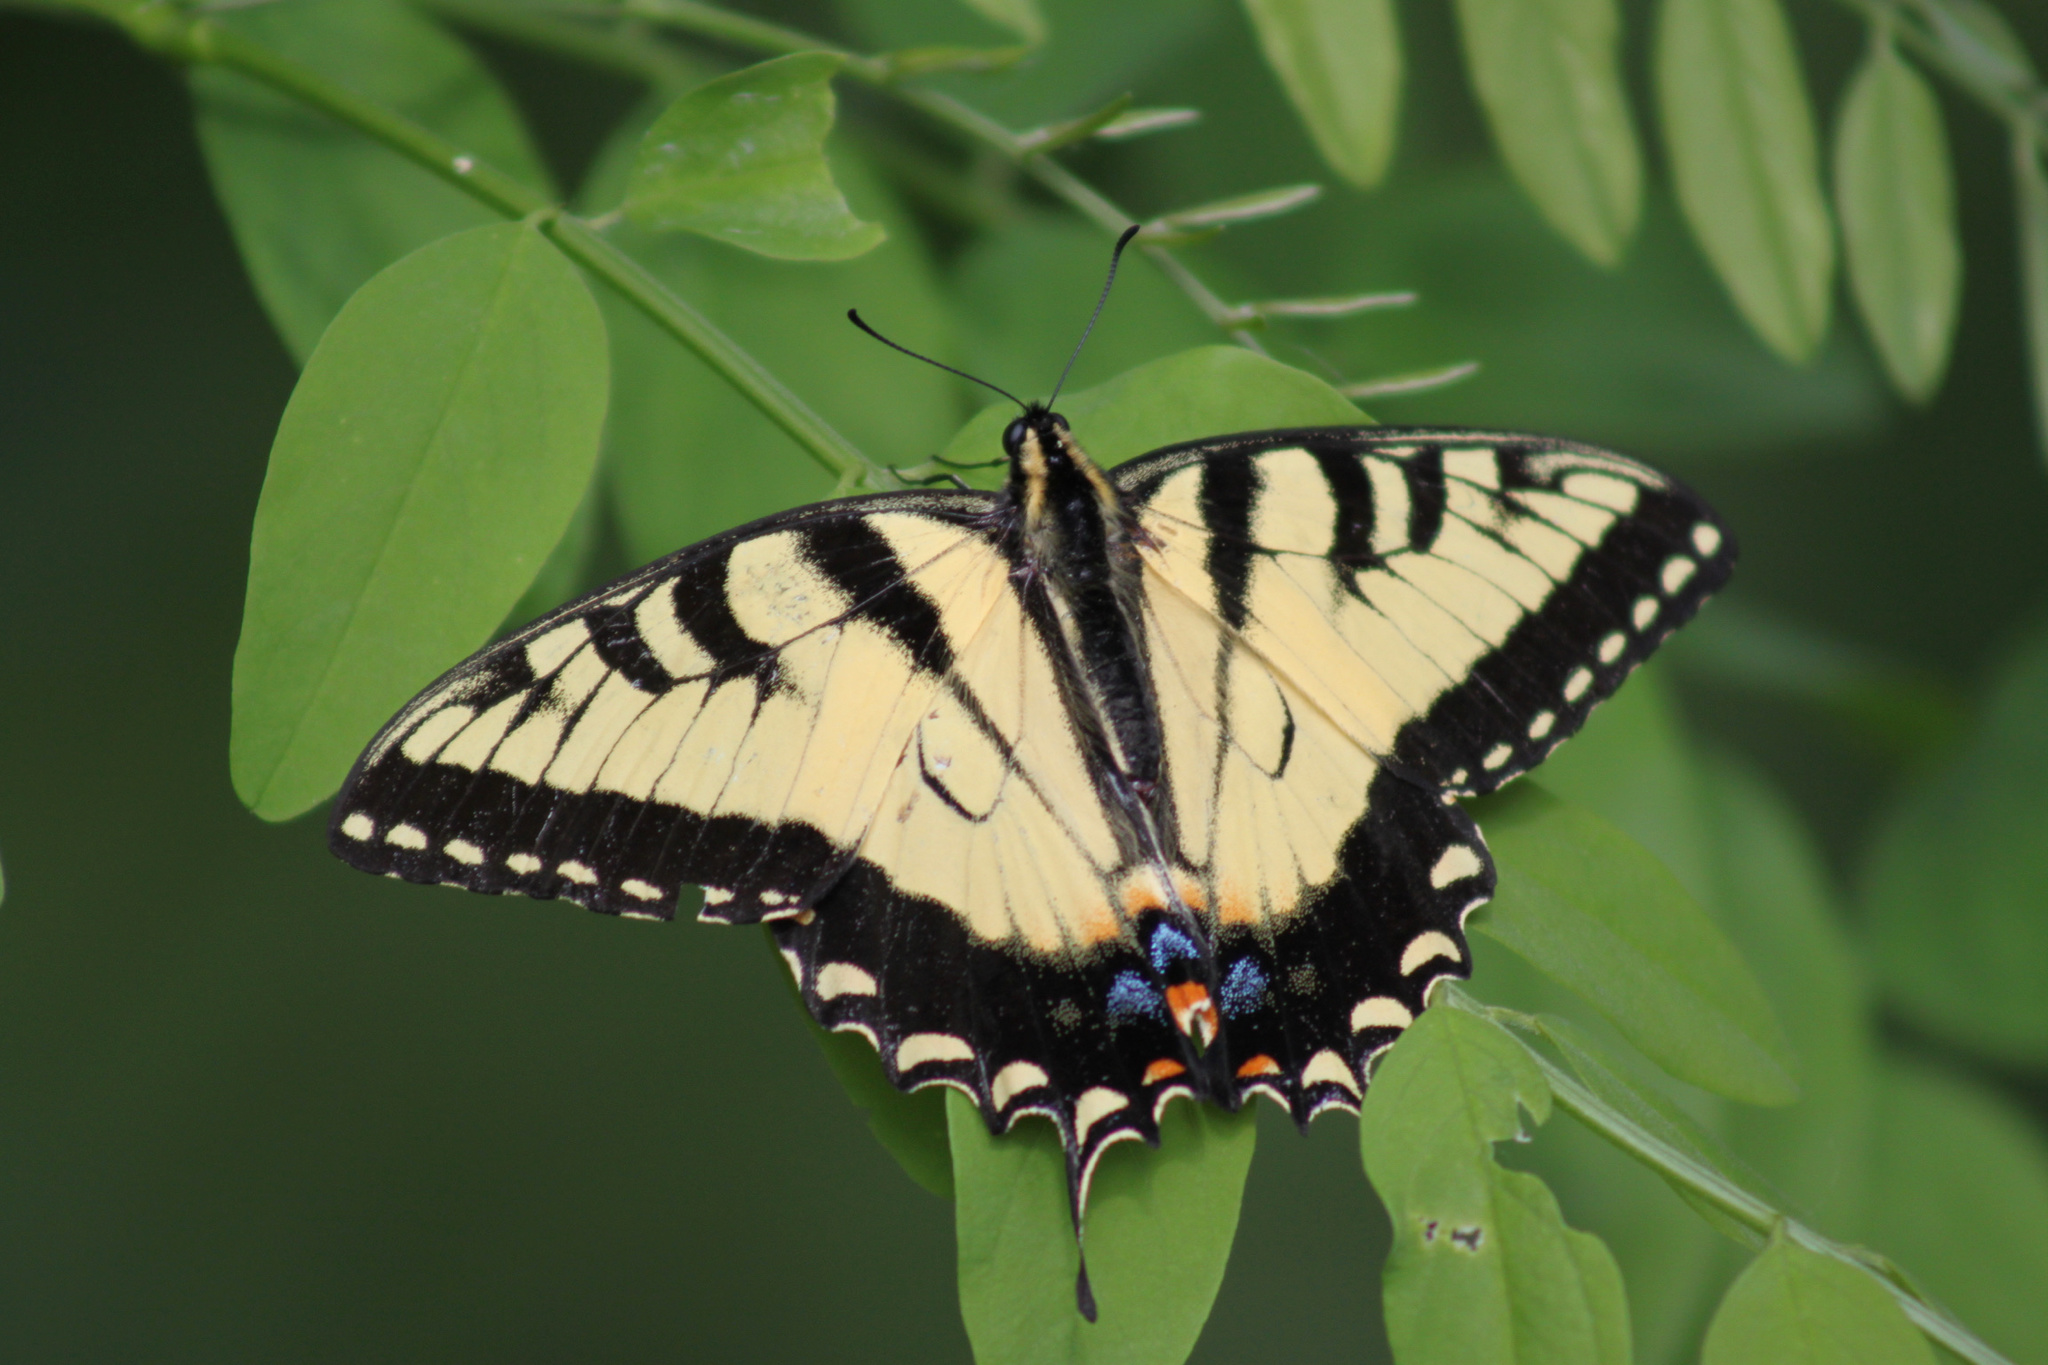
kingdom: Animalia
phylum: Arthropoda
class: Insecta
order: Lepidoptera
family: Papilionidae
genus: Papilio
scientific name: Papilio glaucus
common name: Tiger swallowtail
